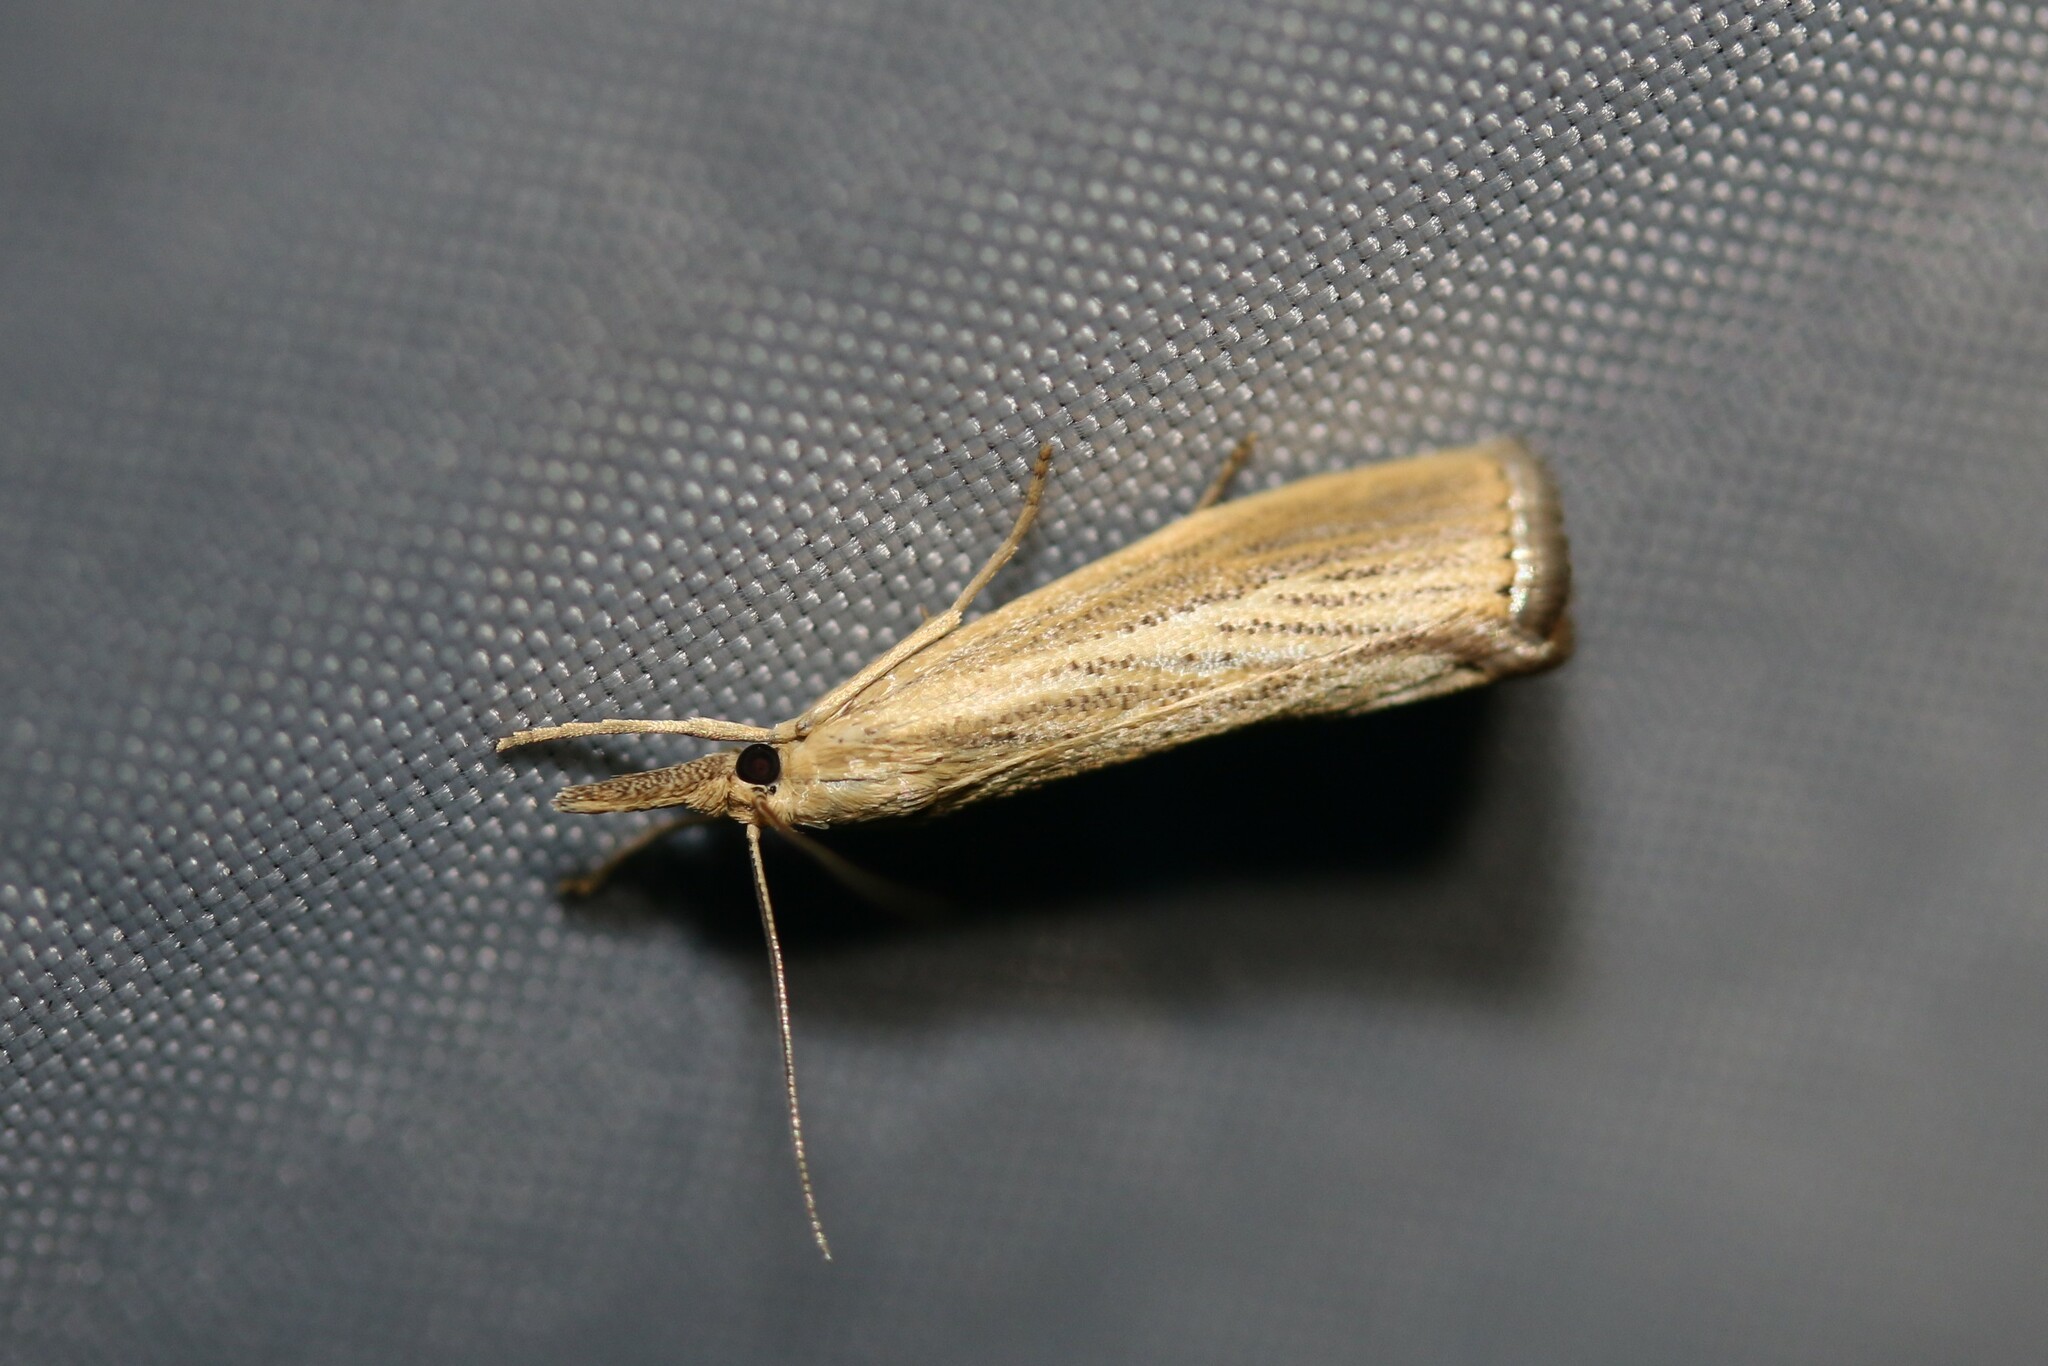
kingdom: Animalia
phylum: Arthropoda
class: Insecta
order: Lepidoptera
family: Crambidae
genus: Agriphila
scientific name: Agriphila straminella
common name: Straw grass-veneer
